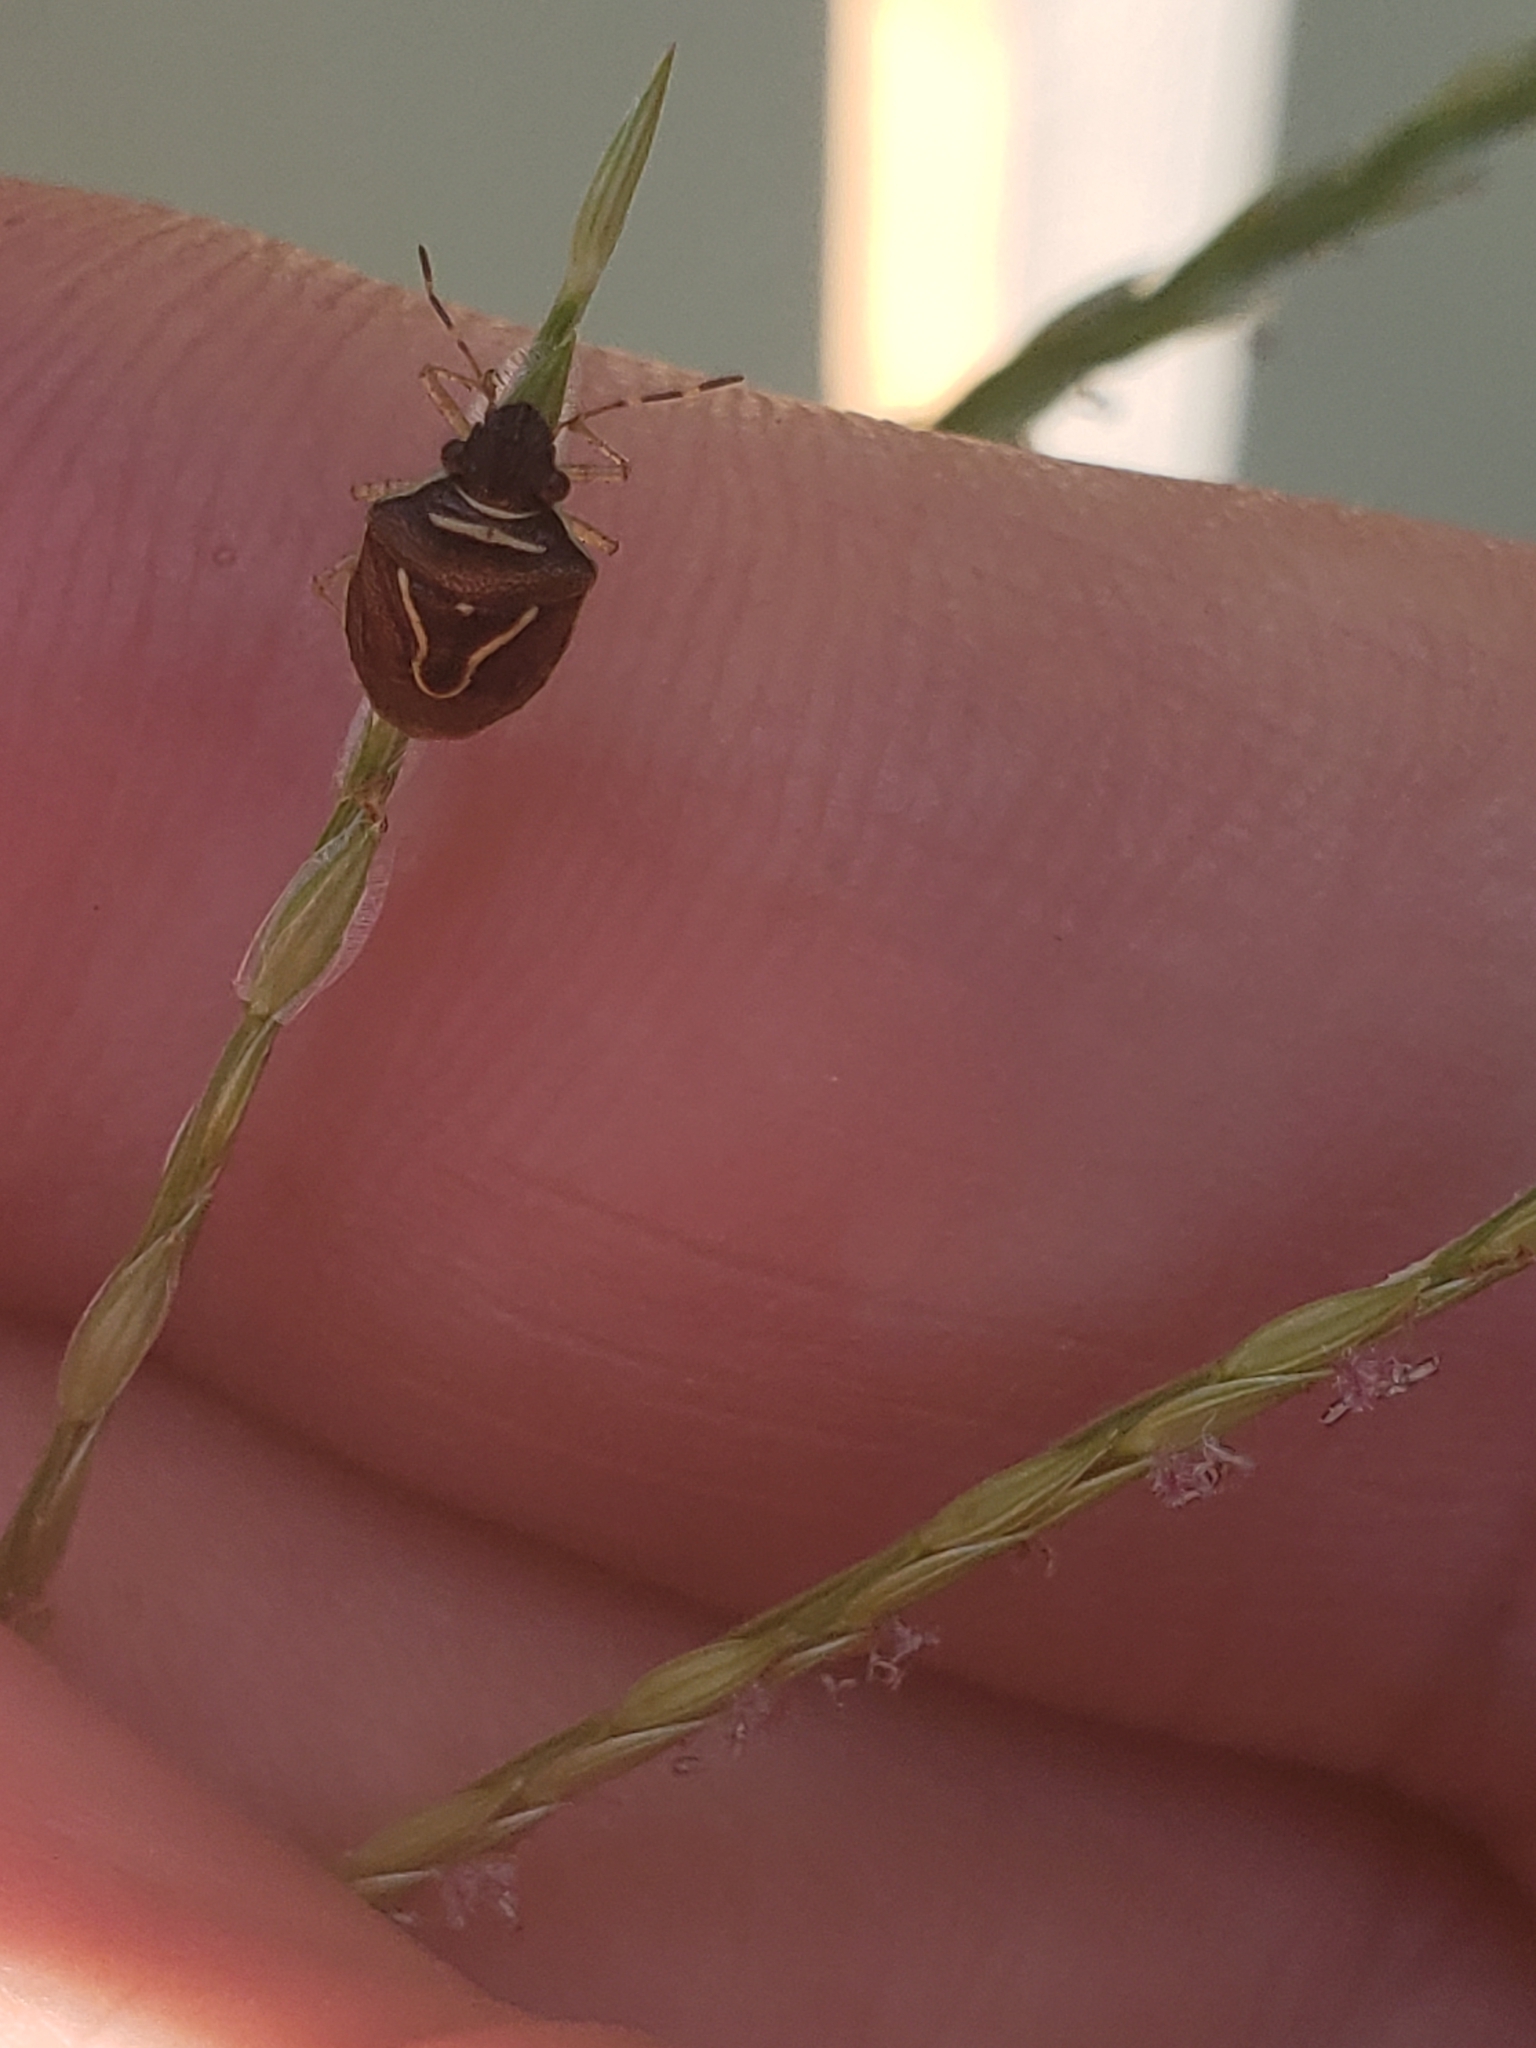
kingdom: Animalia
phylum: Arthropoda
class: Insecta
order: Hemiptera
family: Pentatomidae
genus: Mormidea
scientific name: Mormidea lugens
